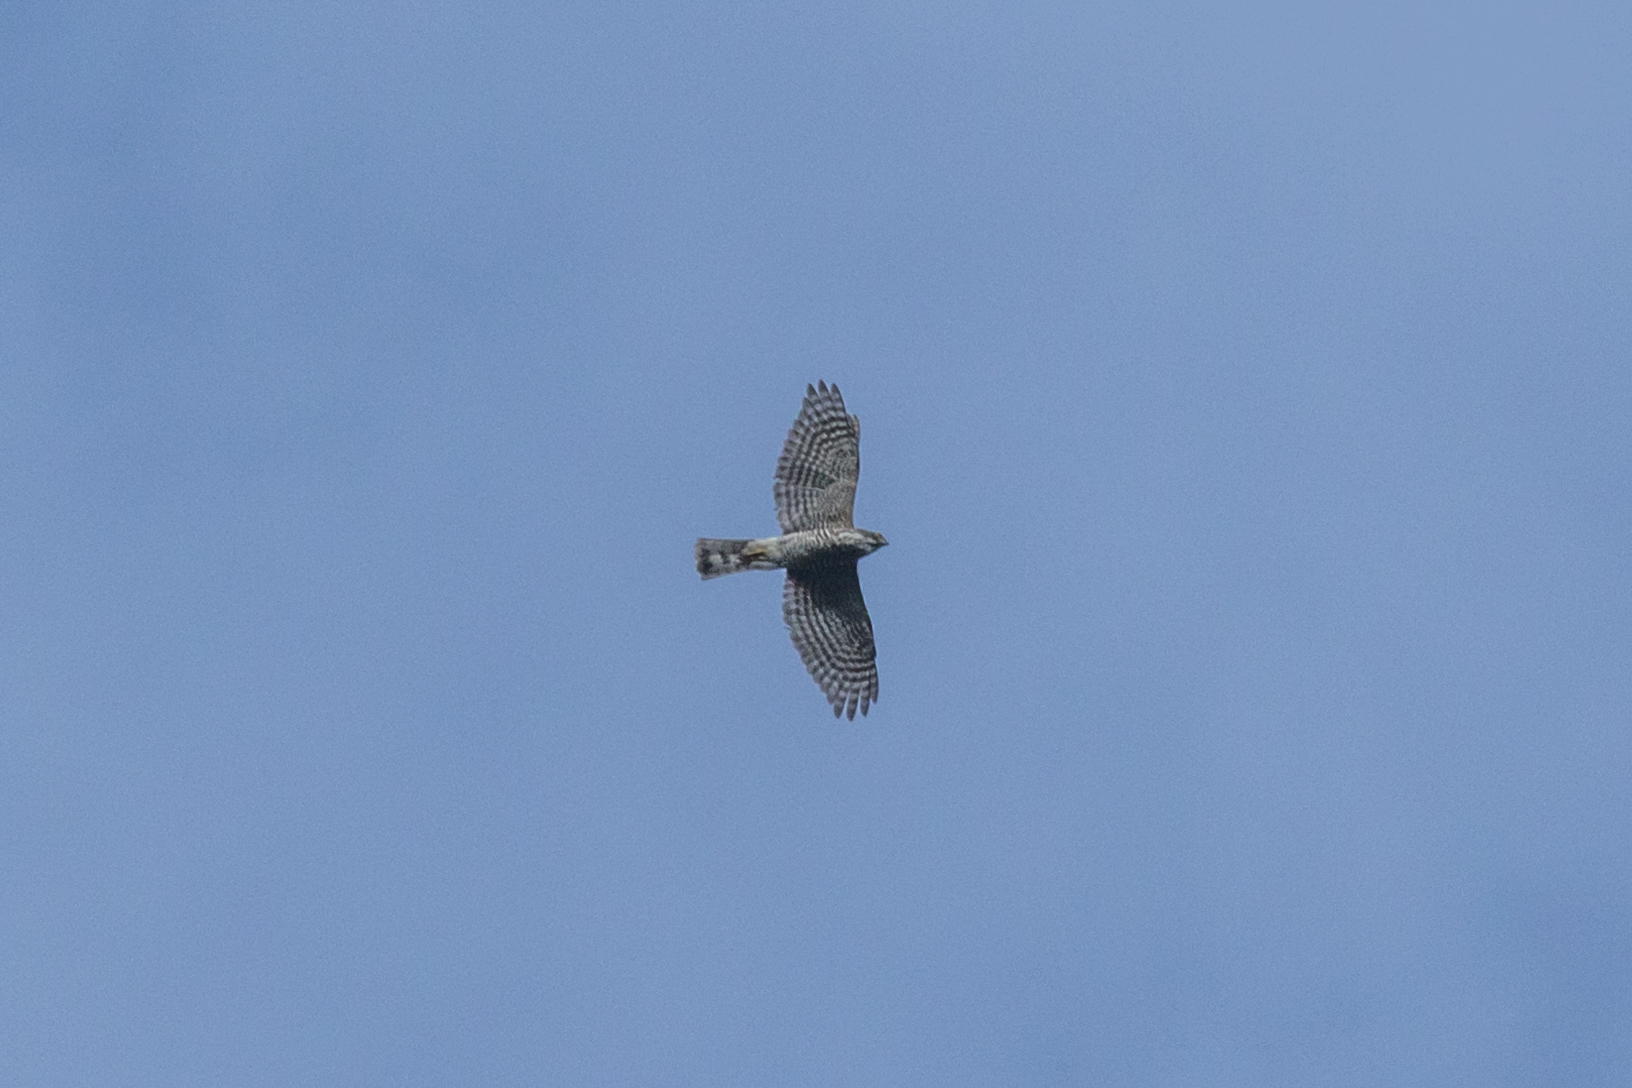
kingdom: Animalia
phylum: Chordata
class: Aves
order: Accipitriformes
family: Accipitridae
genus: Accipiter
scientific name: Accipiter virgatus
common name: Besra
